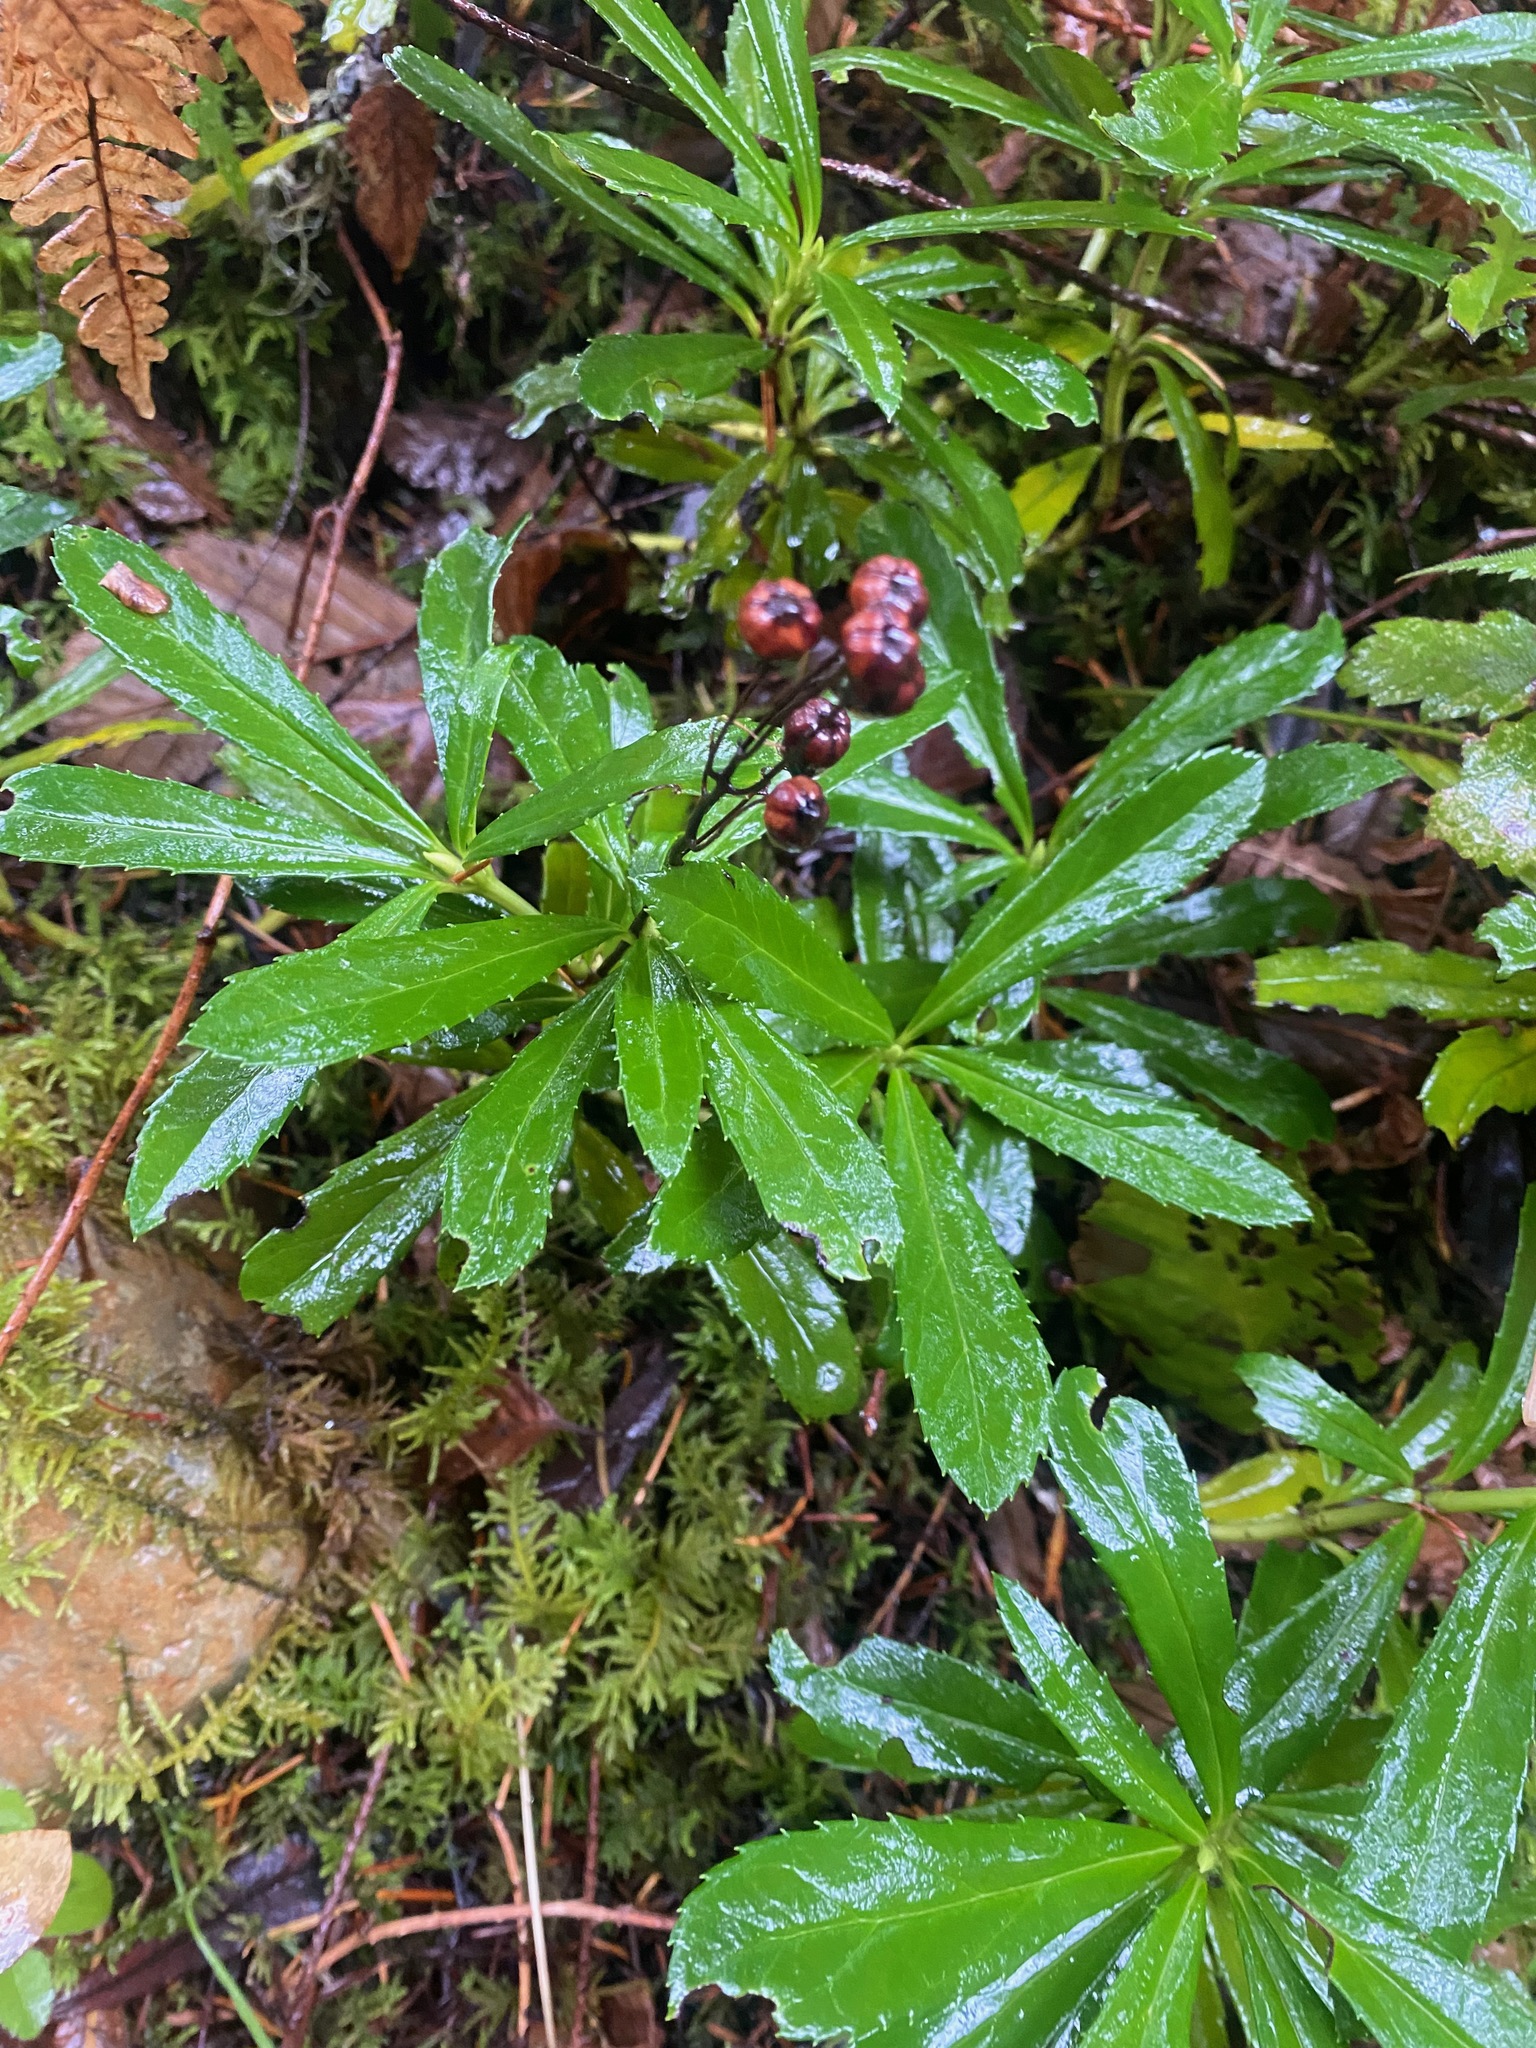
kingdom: Plantae
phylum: Tracheophyta
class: Magnoliopsida
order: Ericales
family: Ericaceae
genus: Chimaphila
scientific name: Chimaphila umbellata
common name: Pipsissewa
